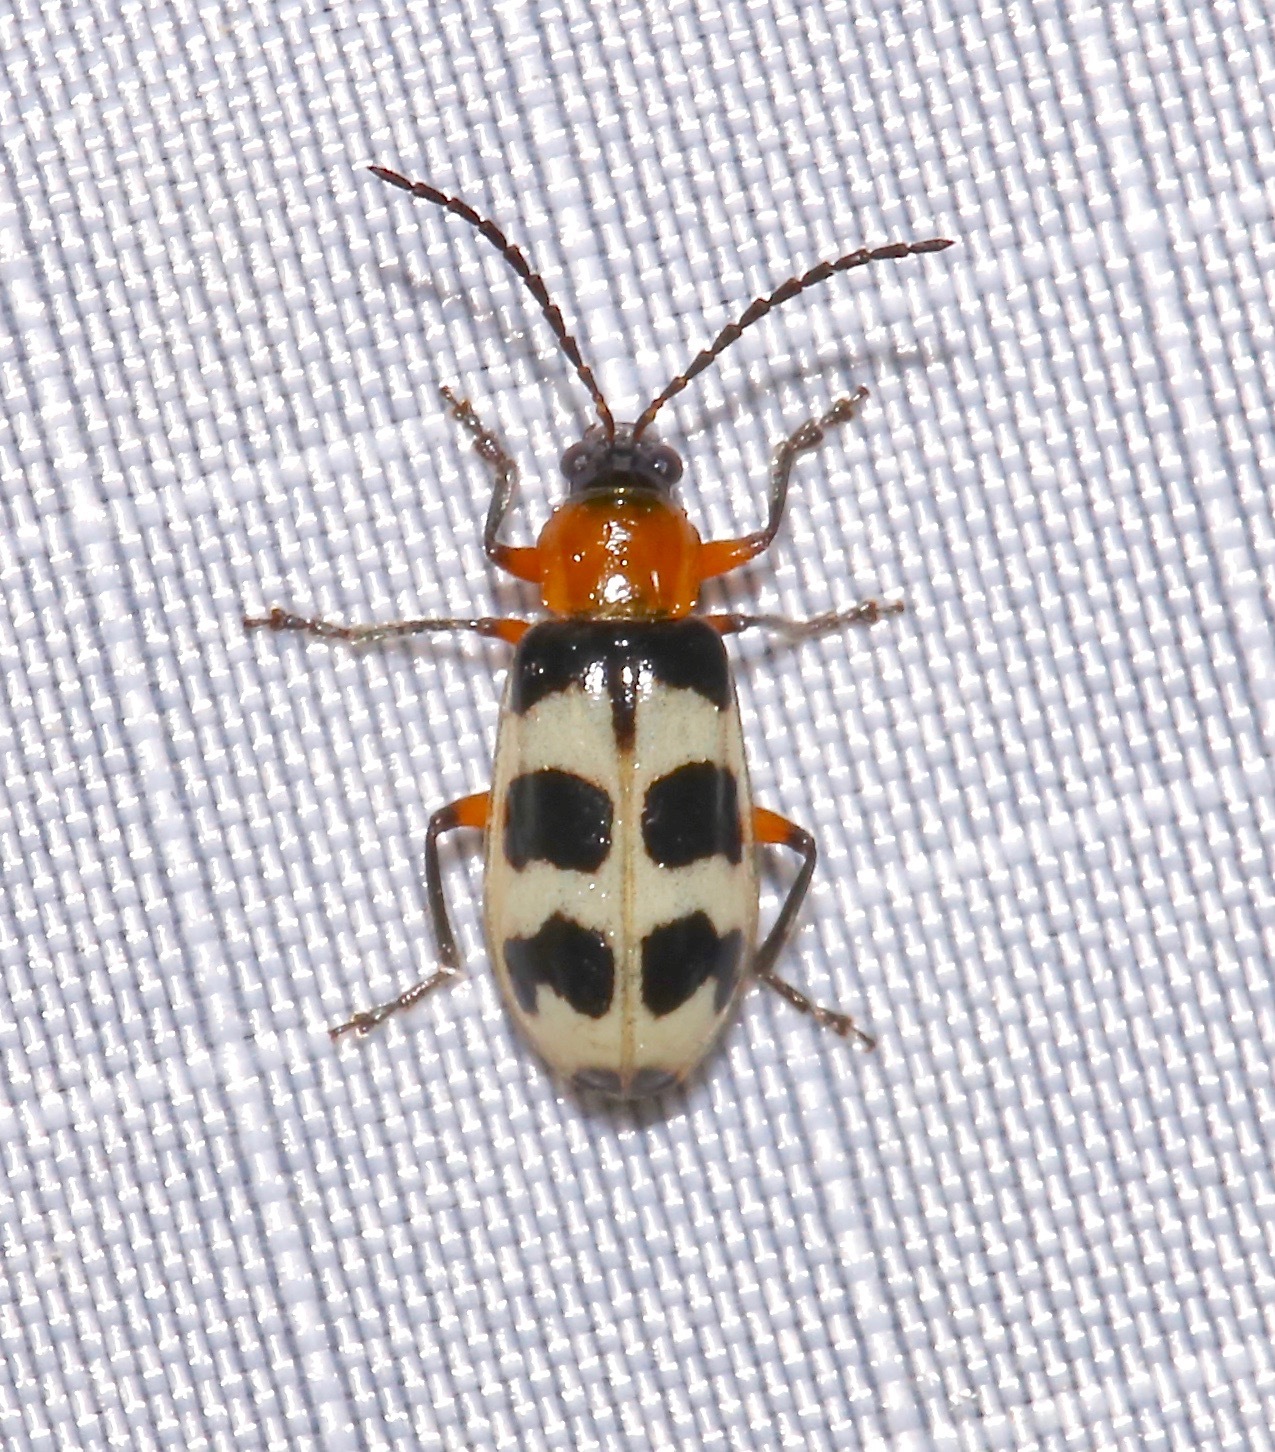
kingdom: Animalia
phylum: Arthropoda
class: Insecta
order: Coleoptera
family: Chrysomelidae
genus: Paranapiacaba
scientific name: Paranapiacaba tricincta
